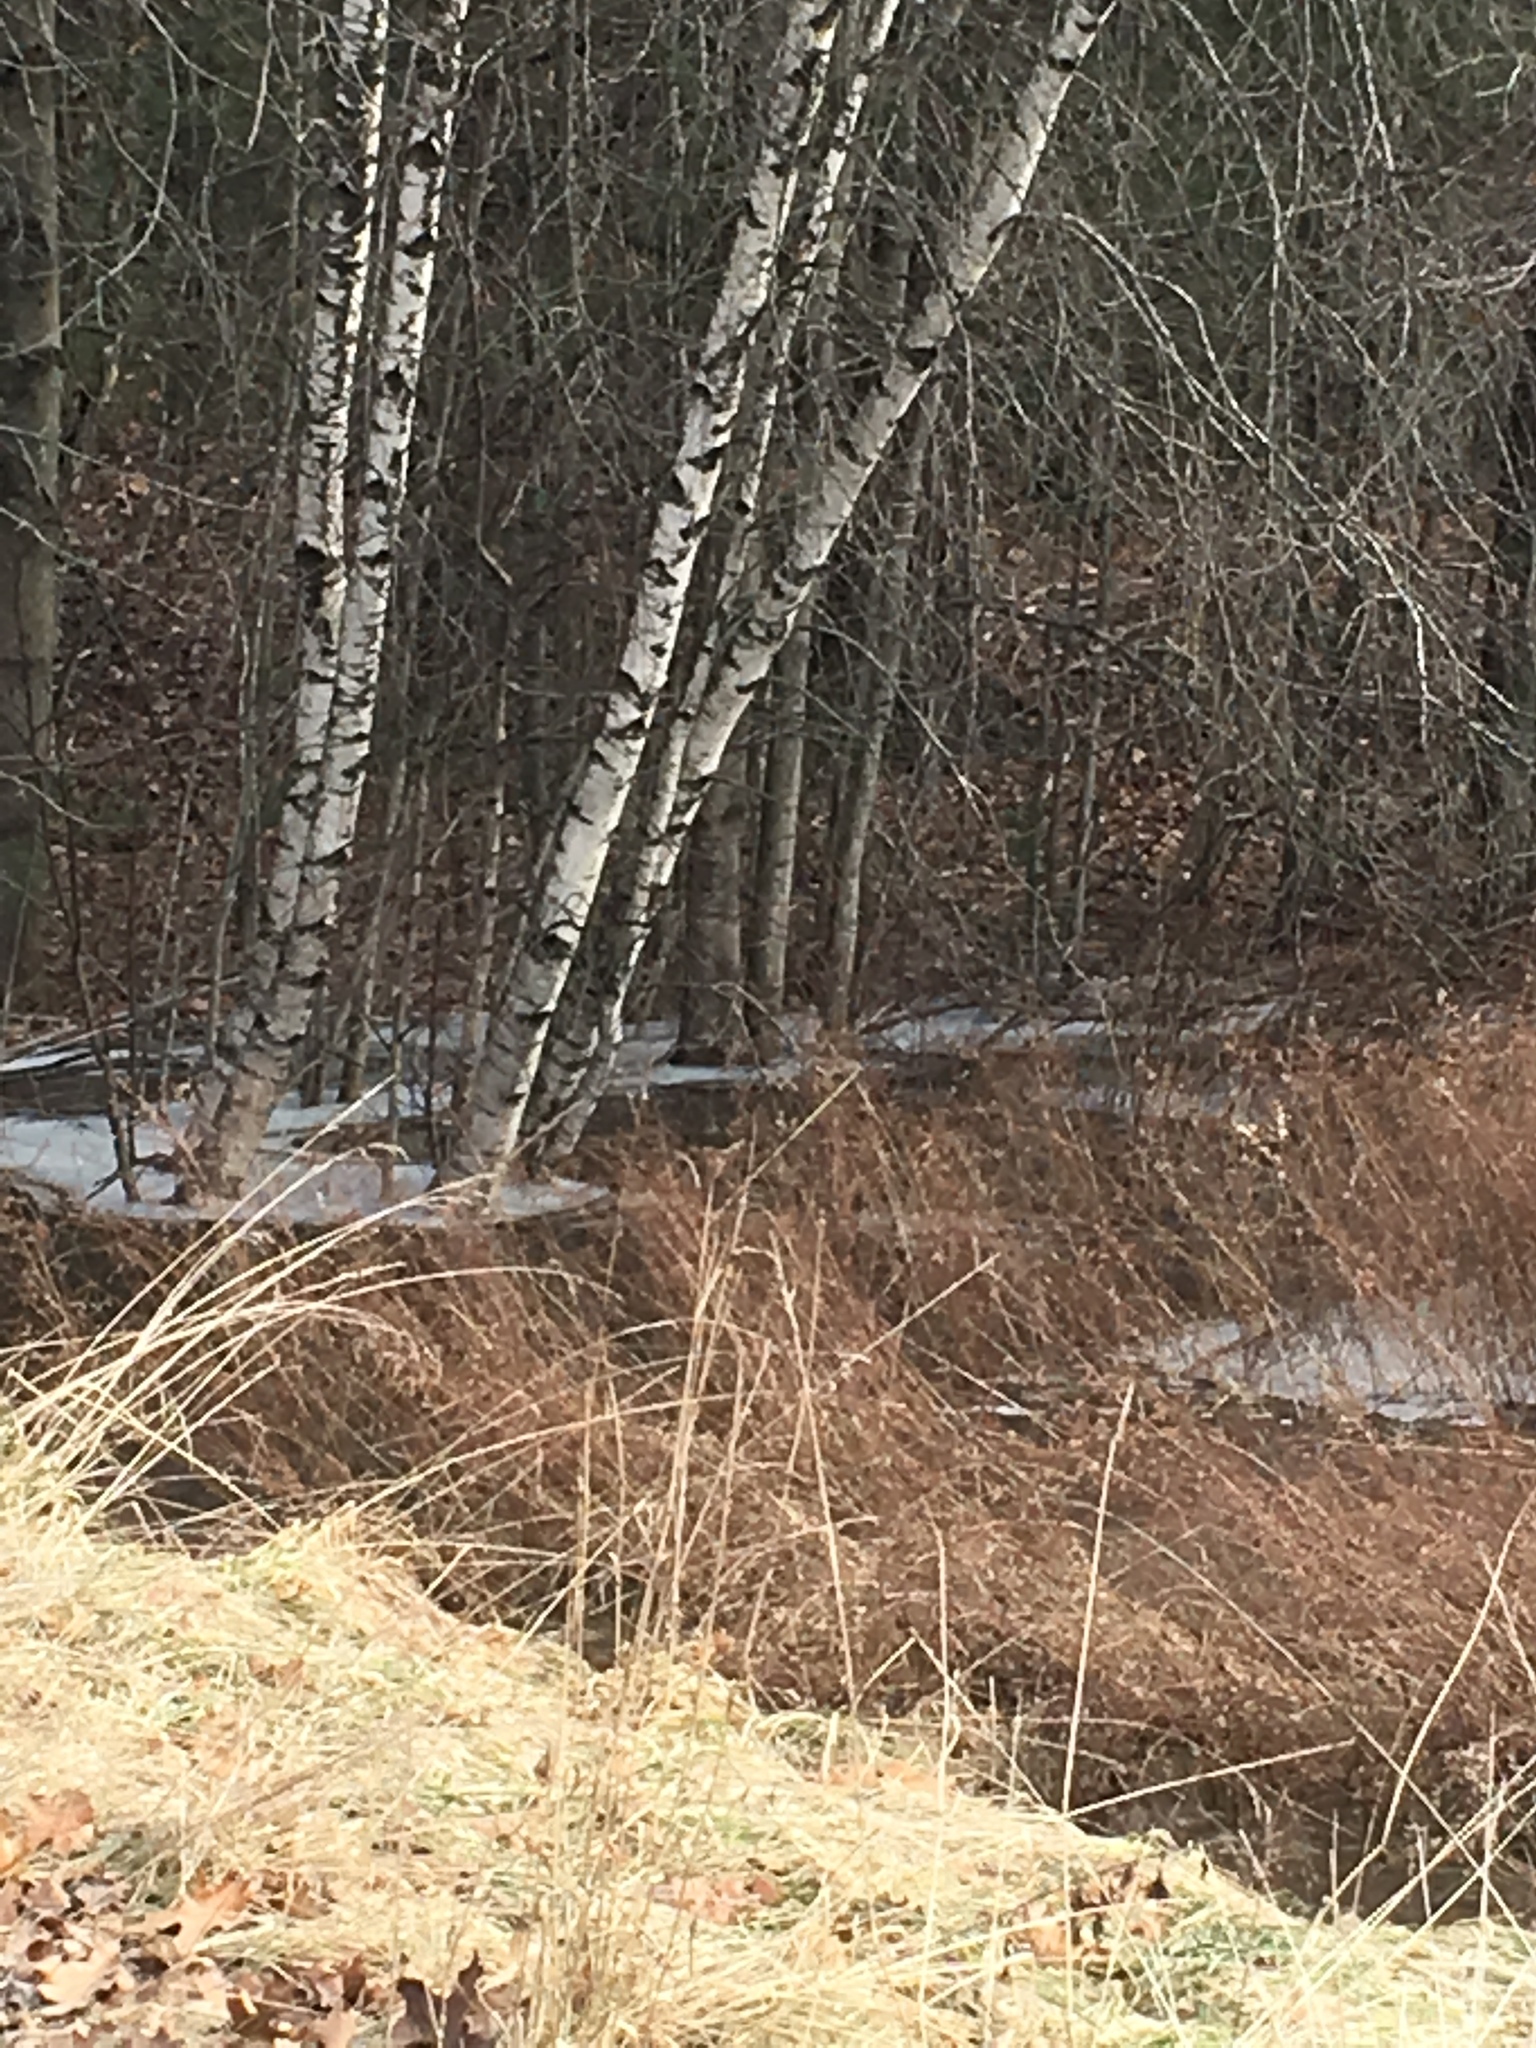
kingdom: Plantae
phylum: Tracheophyta
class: Magnoliopsida
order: Fagales
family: Betulaceae
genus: Betula
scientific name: Betula populifolia
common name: Fire birch
